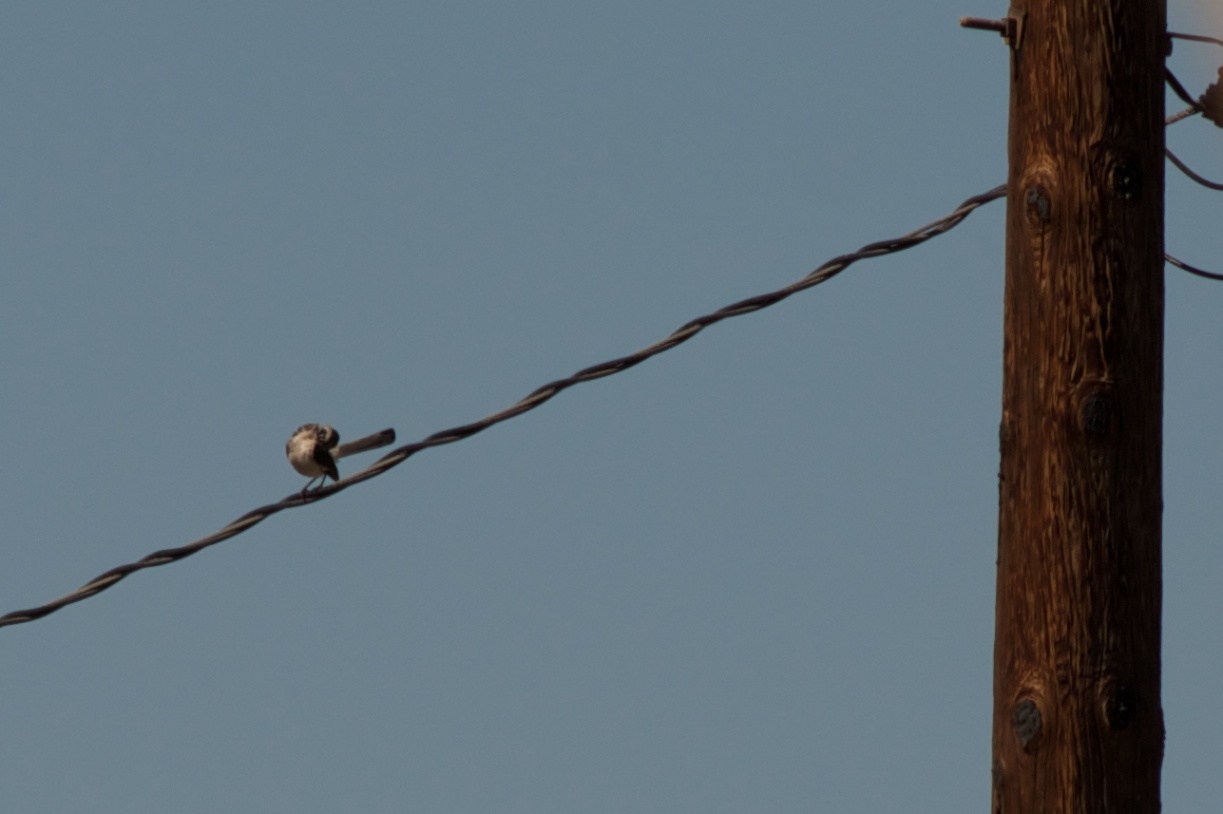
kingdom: Animalia
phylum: Chordata
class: Aves
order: Passeriformes
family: Mimidae
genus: Mimus
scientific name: Mimus polyglottos
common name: Northern mockingbird
